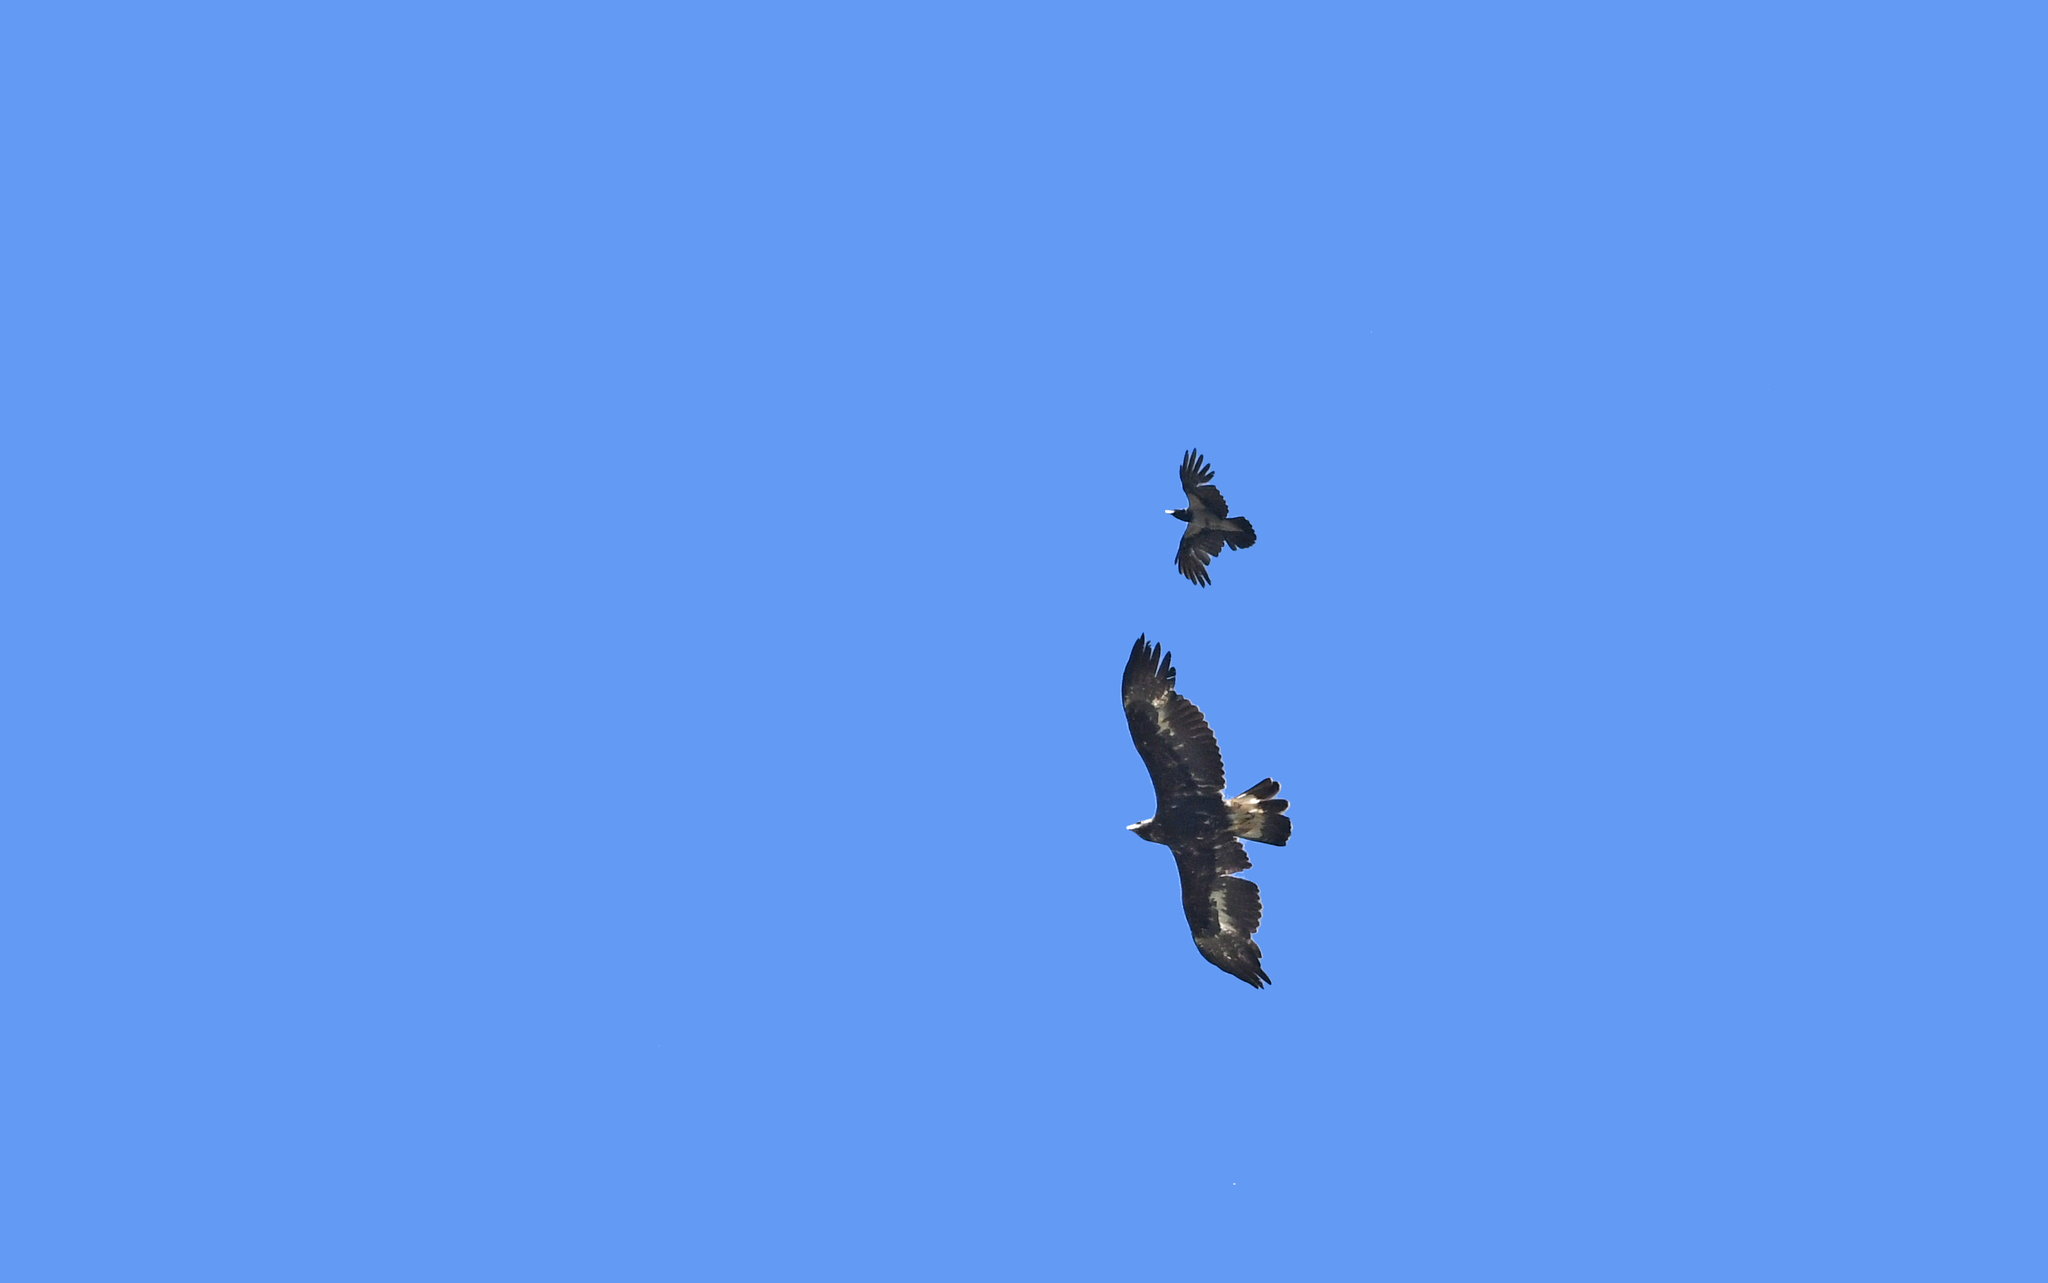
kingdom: Animalia
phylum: Chordata
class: Aves
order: Accipitriformes
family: Accipitridae
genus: Aquila
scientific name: Aquila chrysaetos
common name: Golden eagle
